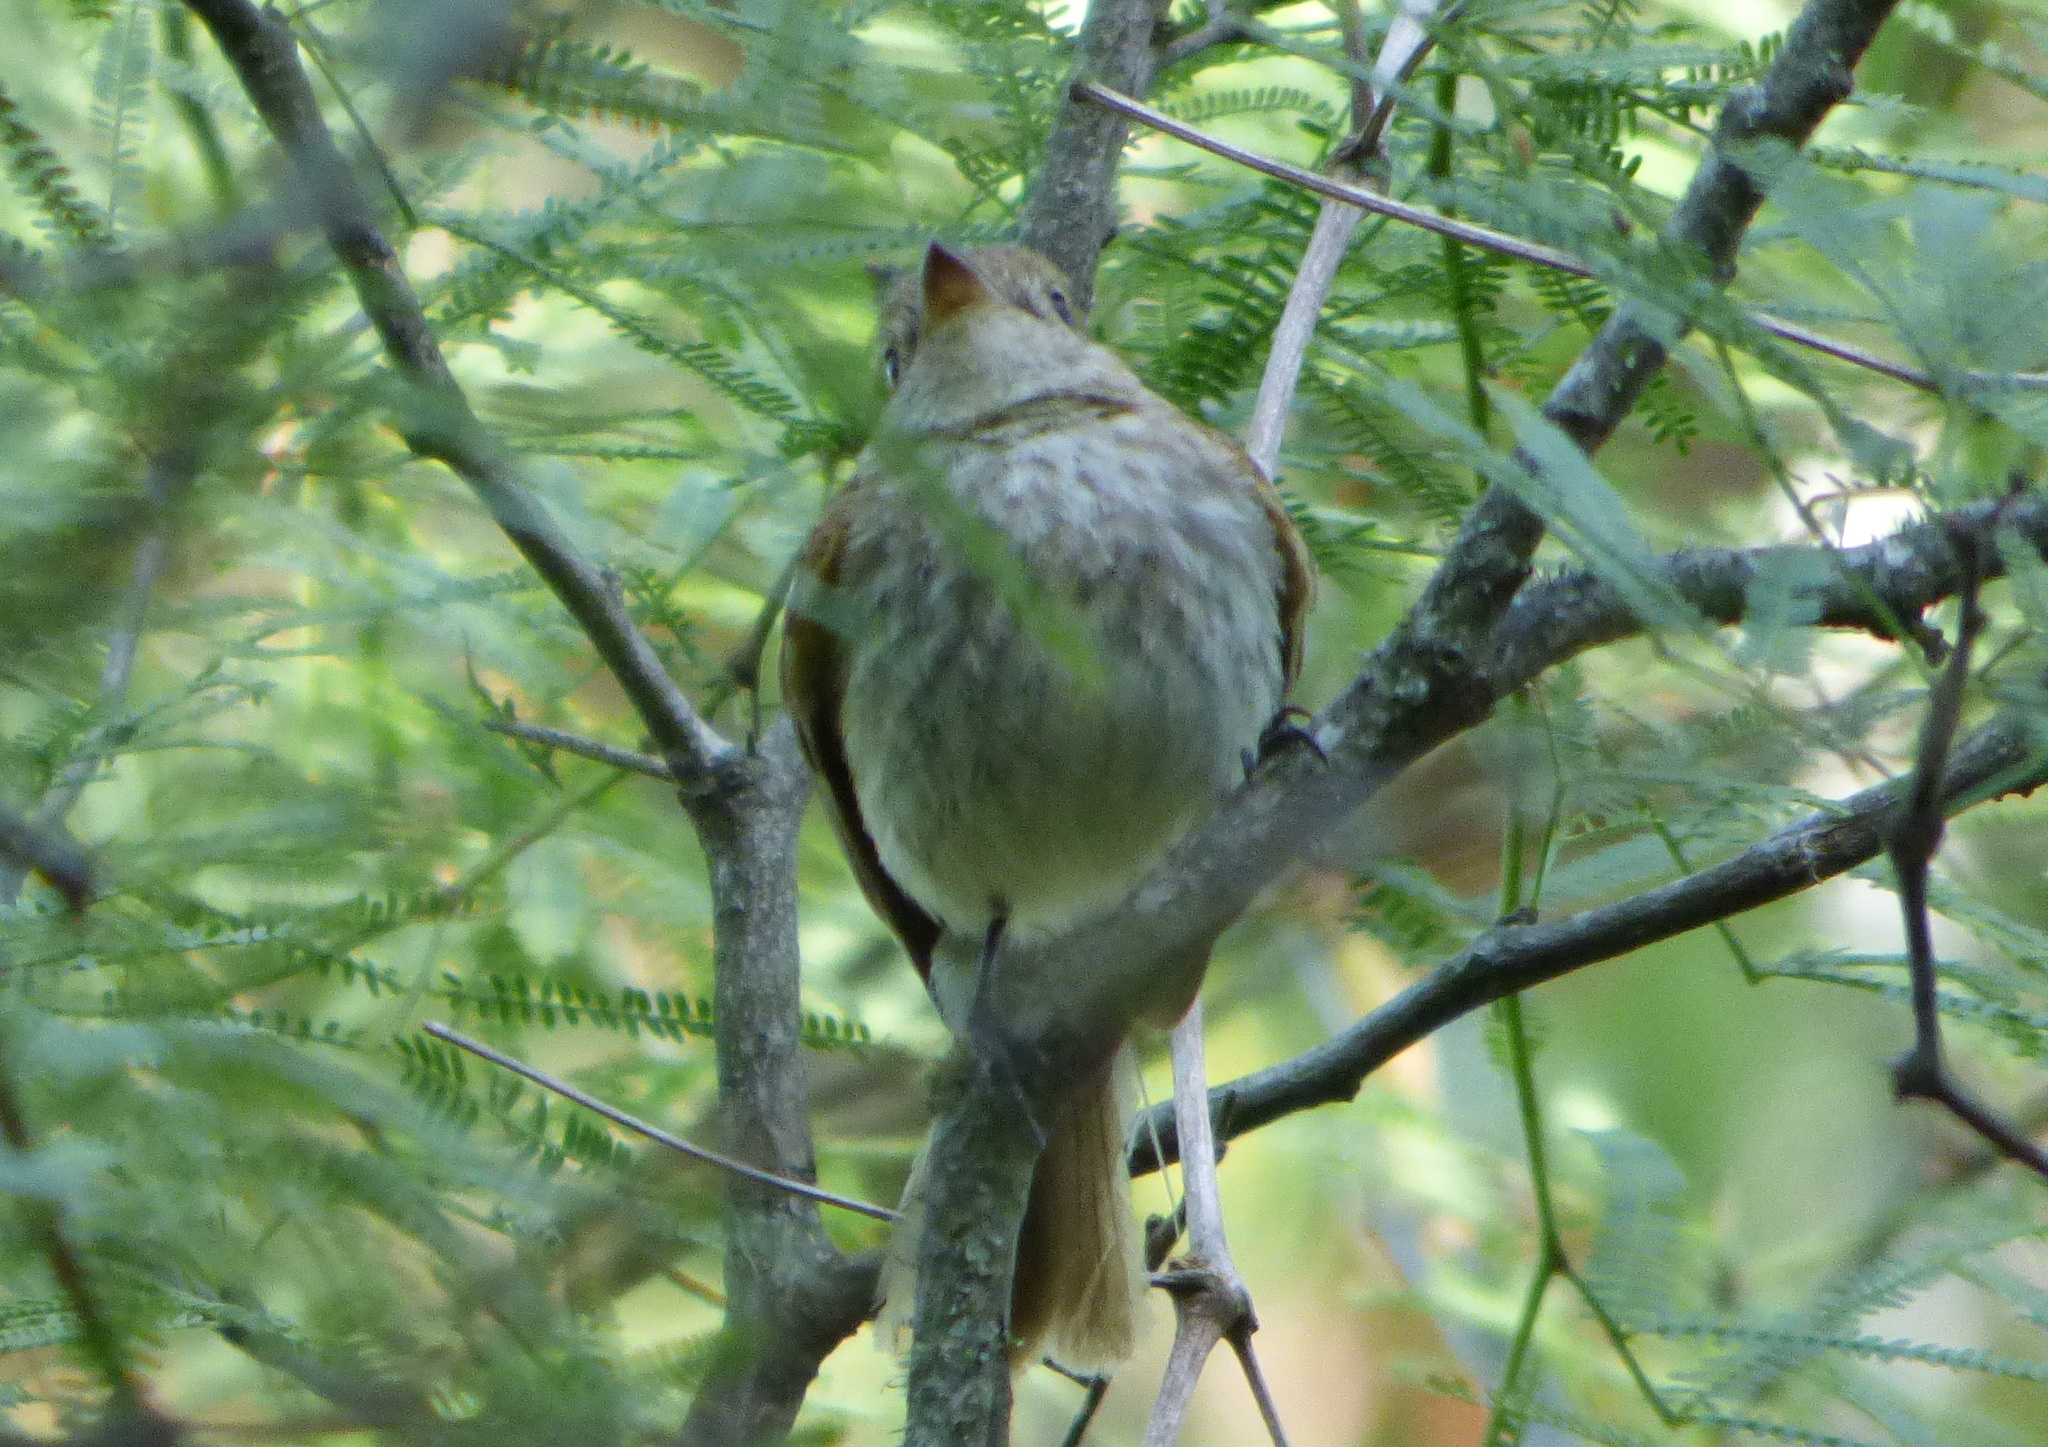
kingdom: Animalia
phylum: Chordata
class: Aves
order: Passeriformes
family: Tyrannidae
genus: Myiophobus
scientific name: Myiophobus fasciatus
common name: Bran-colored flycatcher
